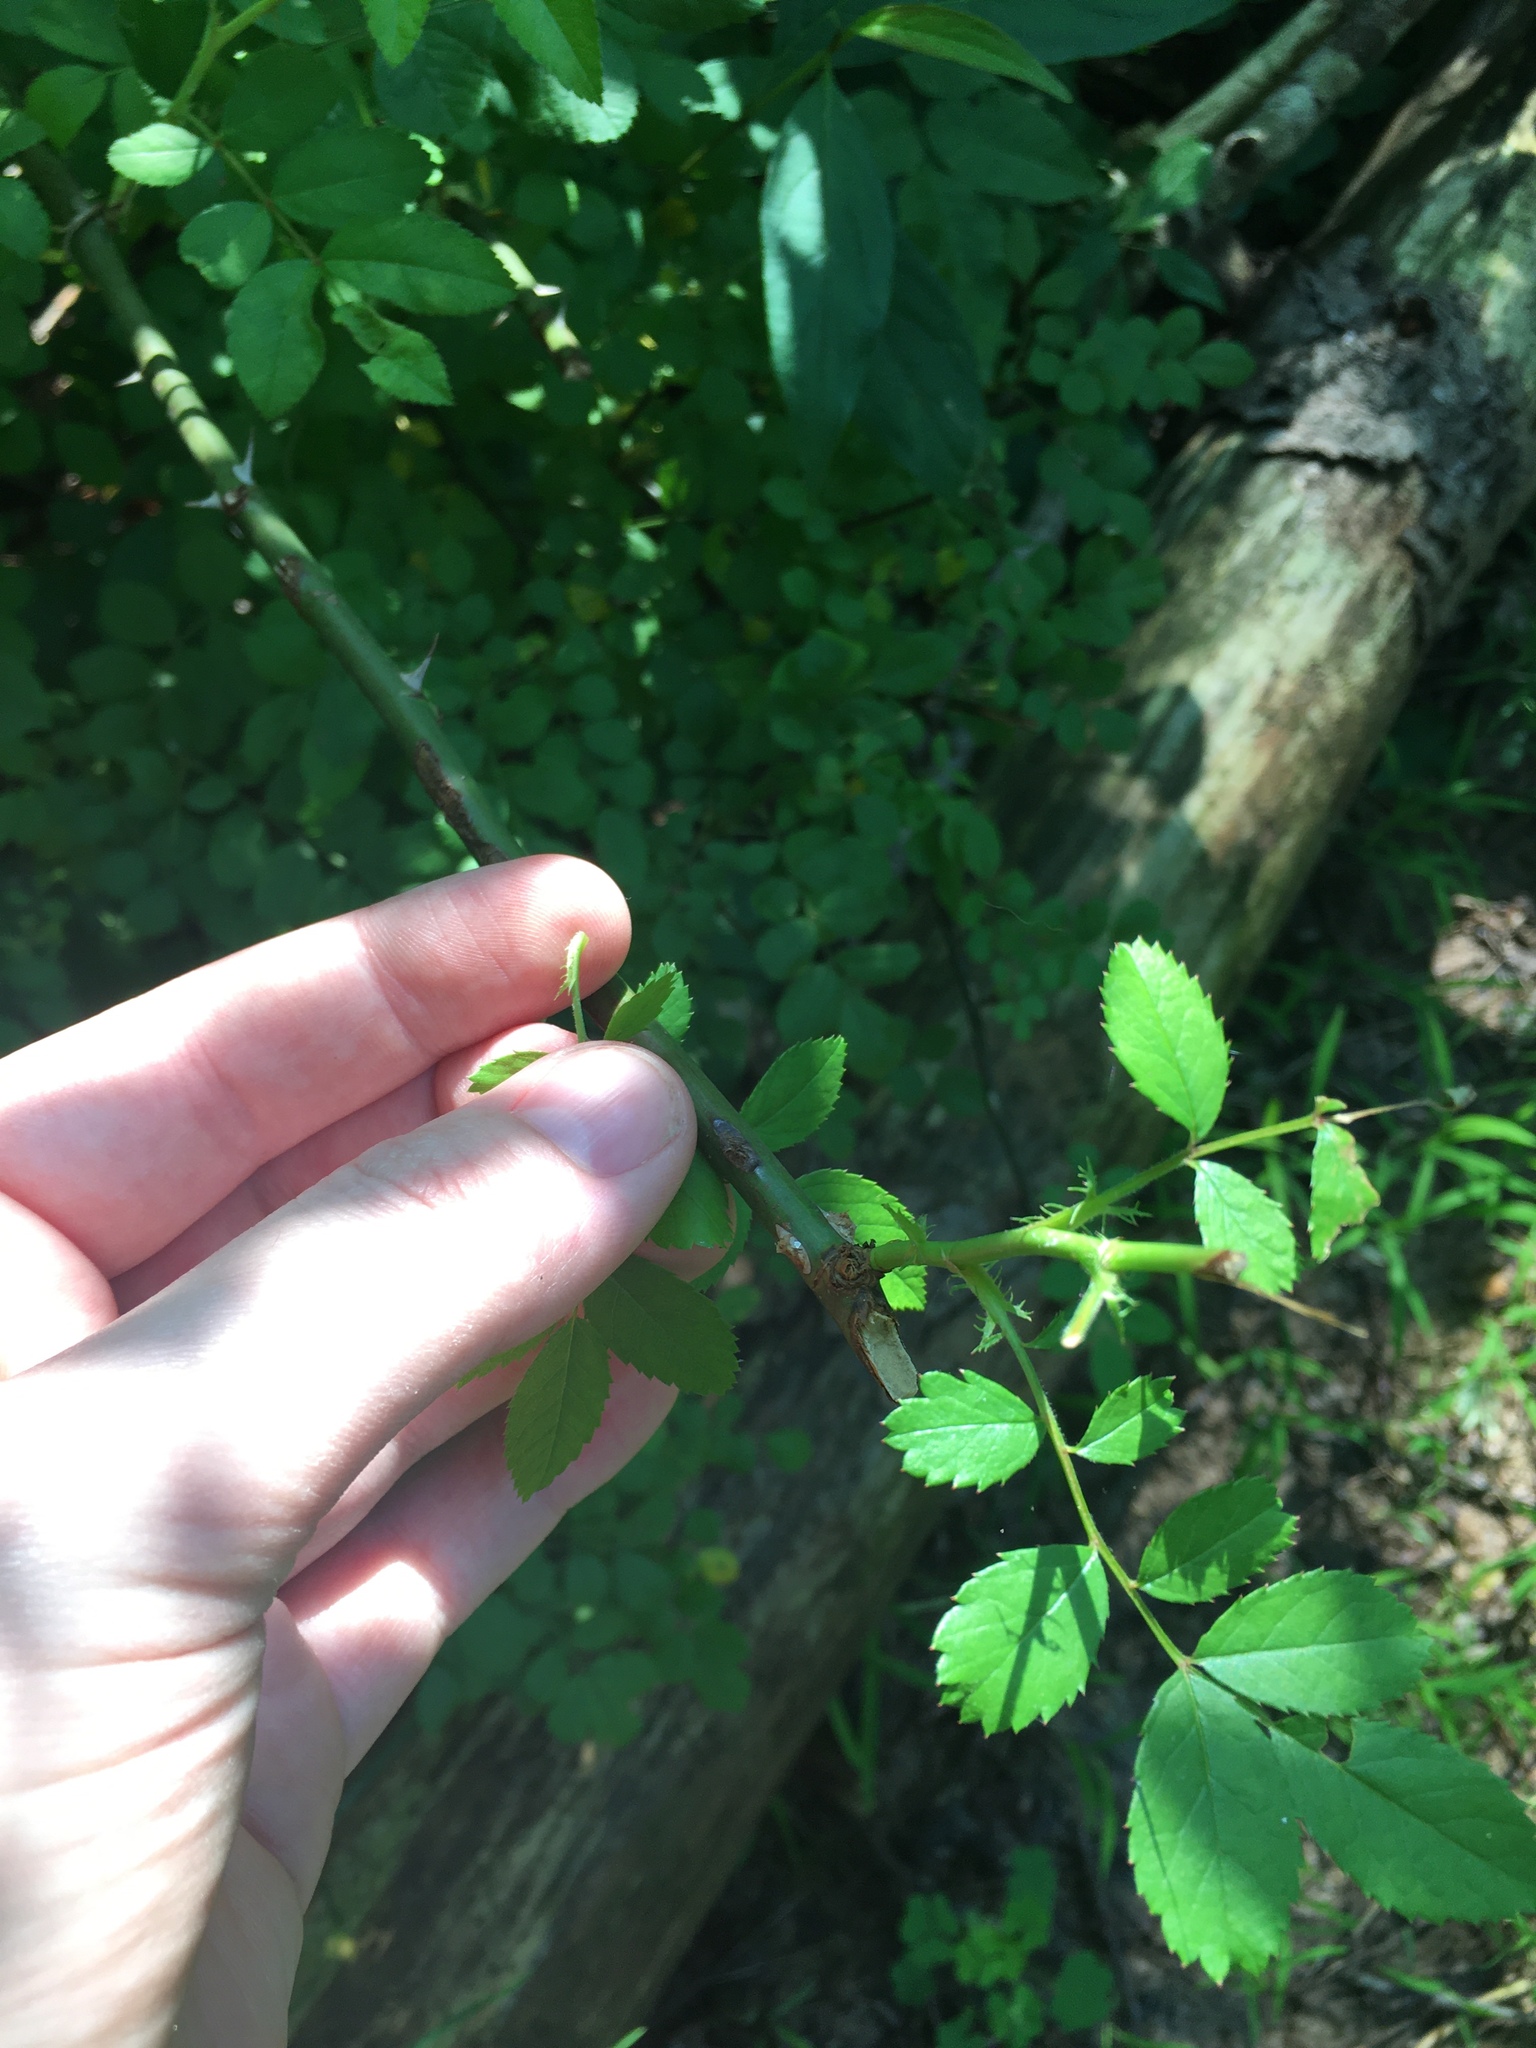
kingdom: Plantae
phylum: Tracheophyta
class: Magnoliopsida
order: Rosales
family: Rosaceae
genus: Rosa
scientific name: Rosa multiflora
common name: Multiflora rose
